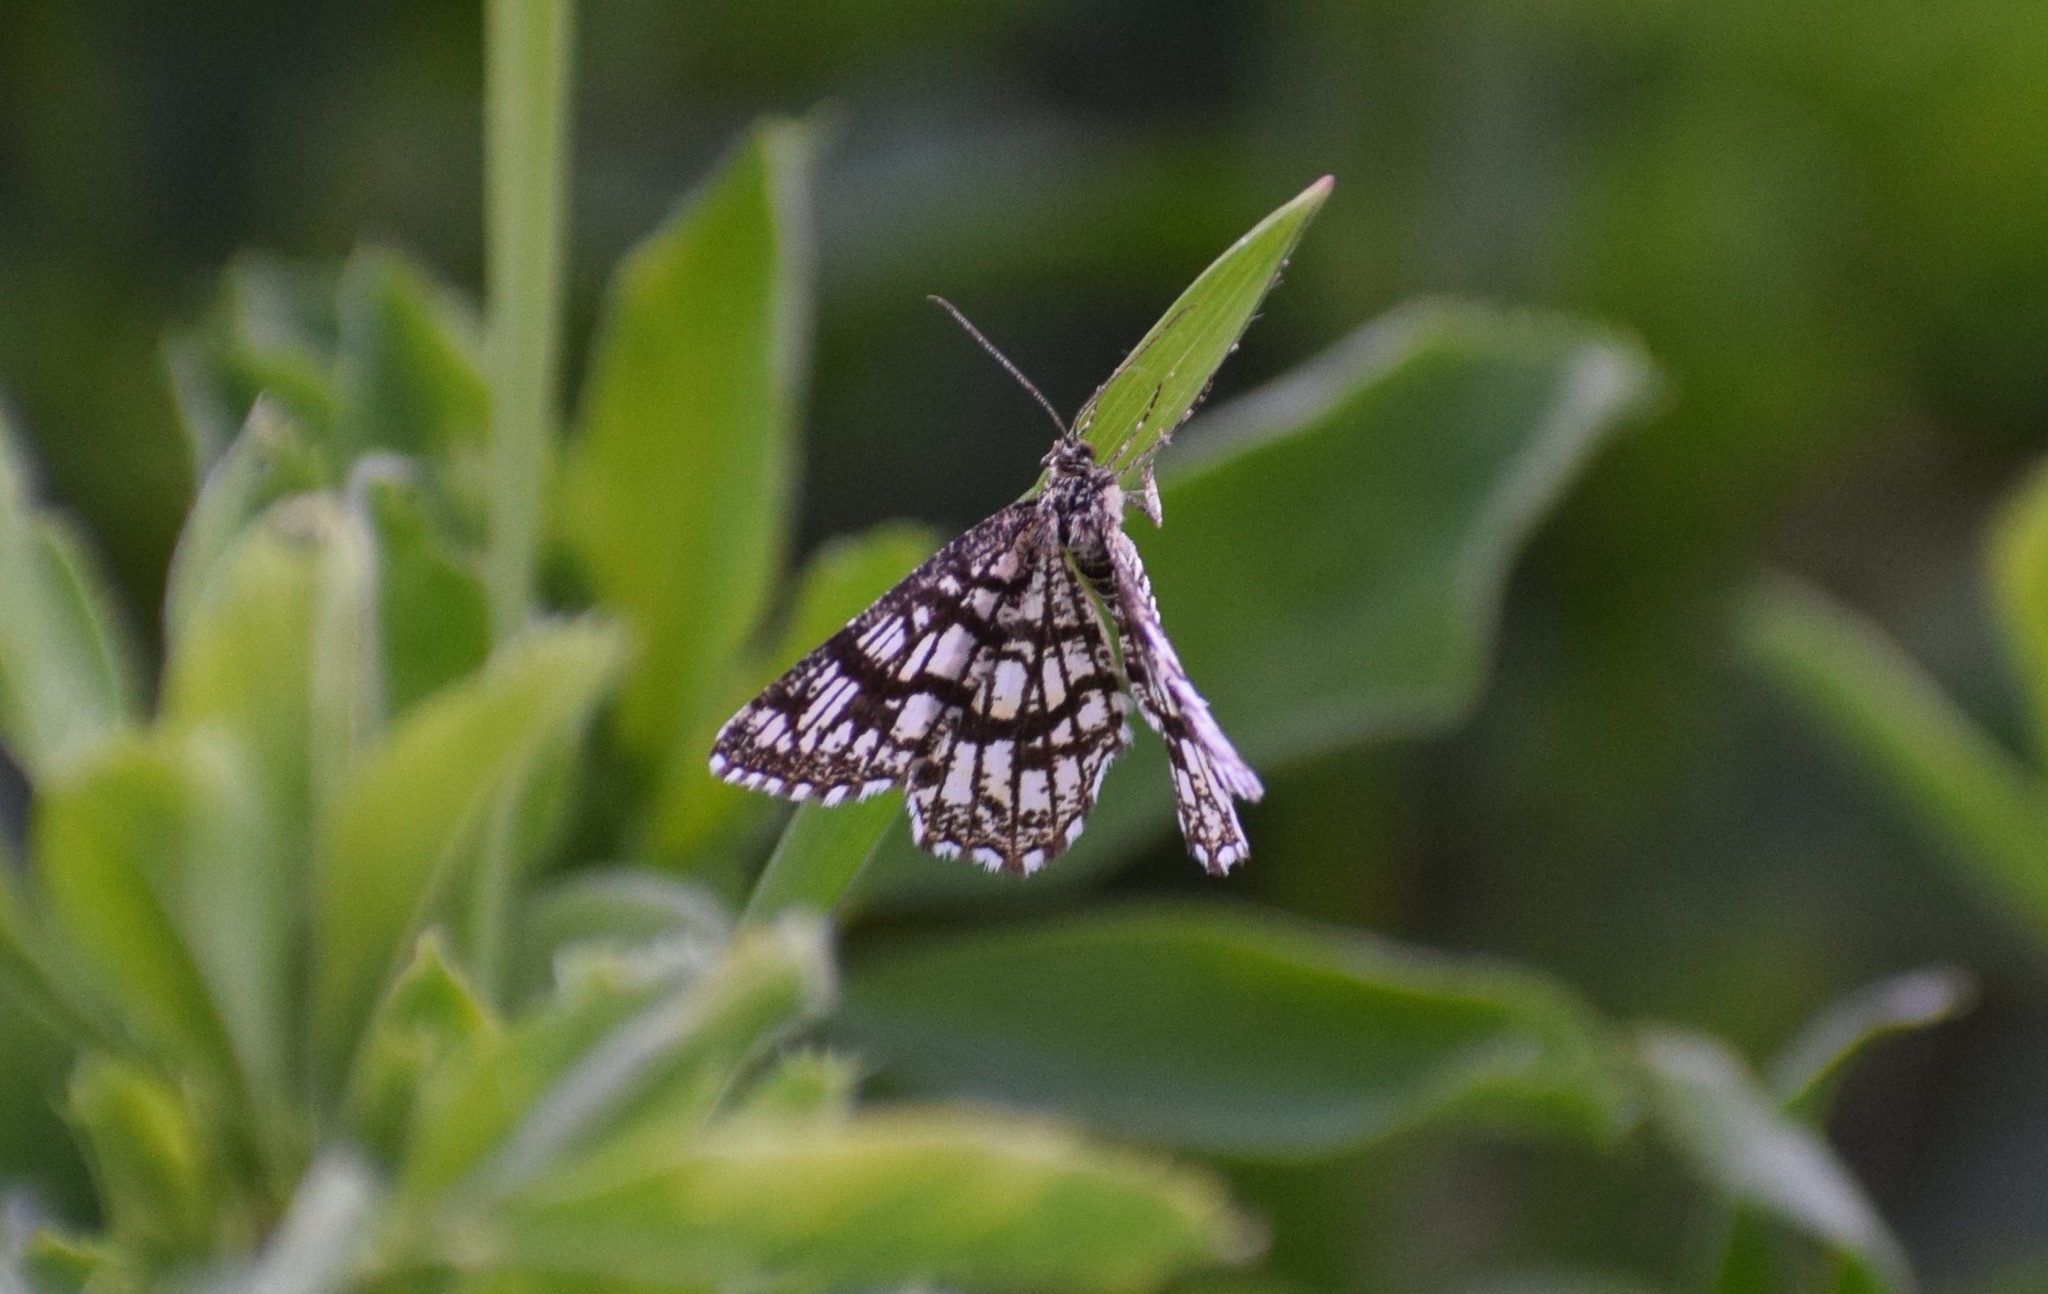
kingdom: Animalia
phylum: Arthropoda
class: Insecta
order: Lepidoptera
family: Geometridae
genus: Chiasmia
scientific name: Chiasmia clathrata
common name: Latticed heath
